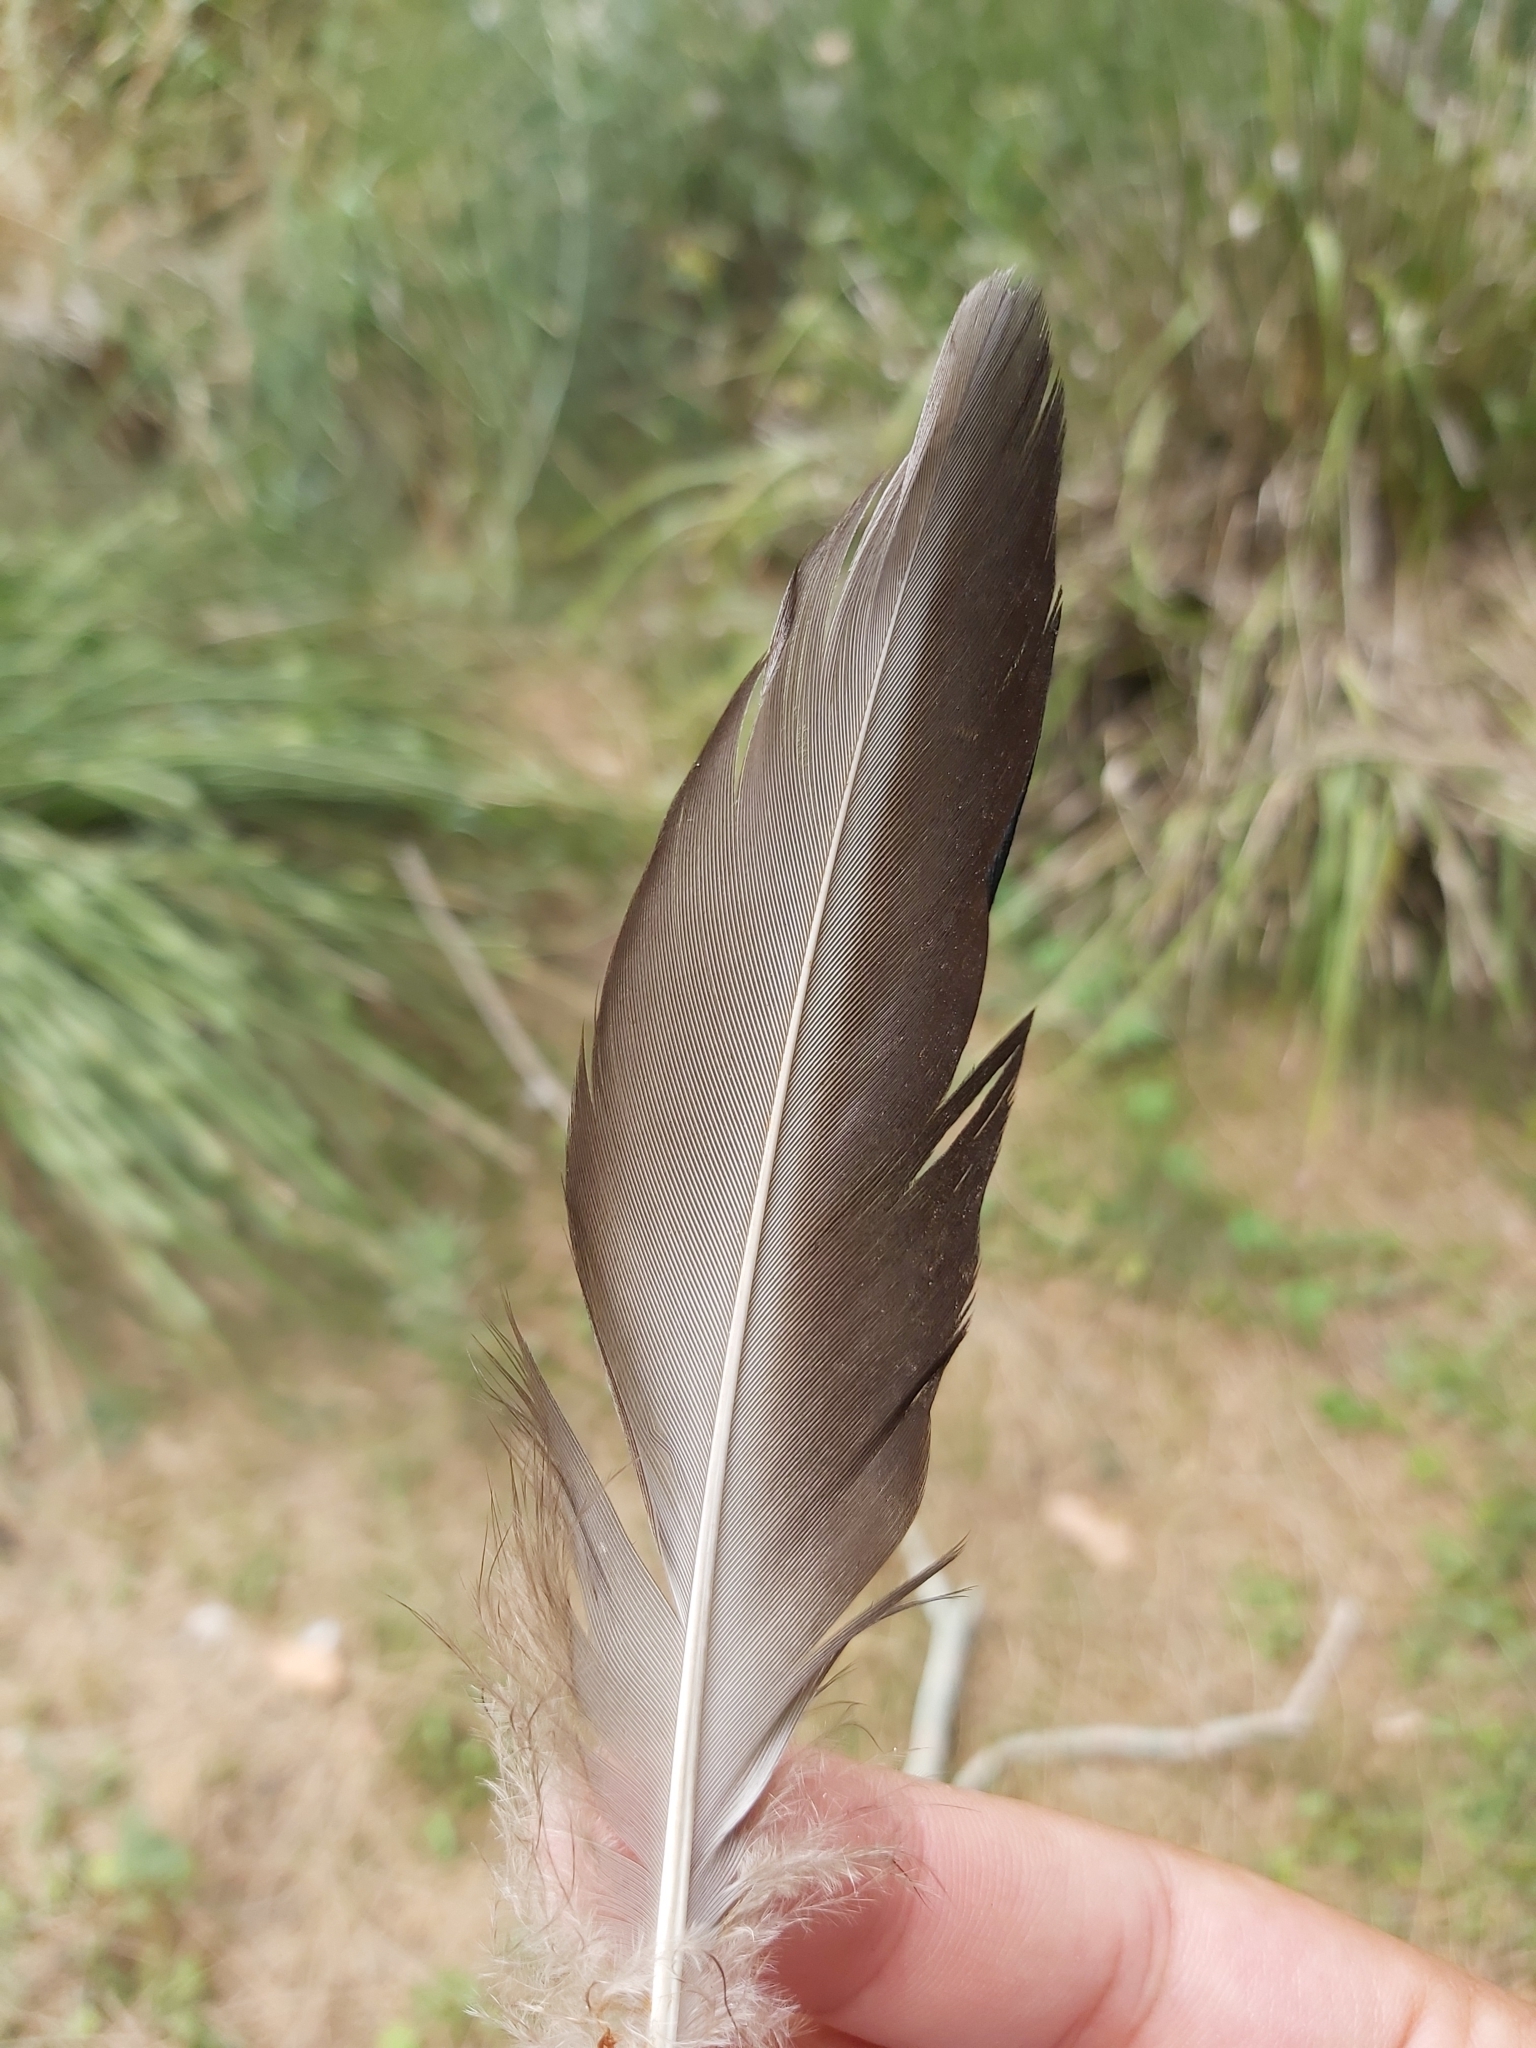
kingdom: Animalia
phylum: Chordata
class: Aves
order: Anseriformes
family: Anatidae
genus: Anas
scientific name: Anas superciliosa
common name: Pacific black duck
